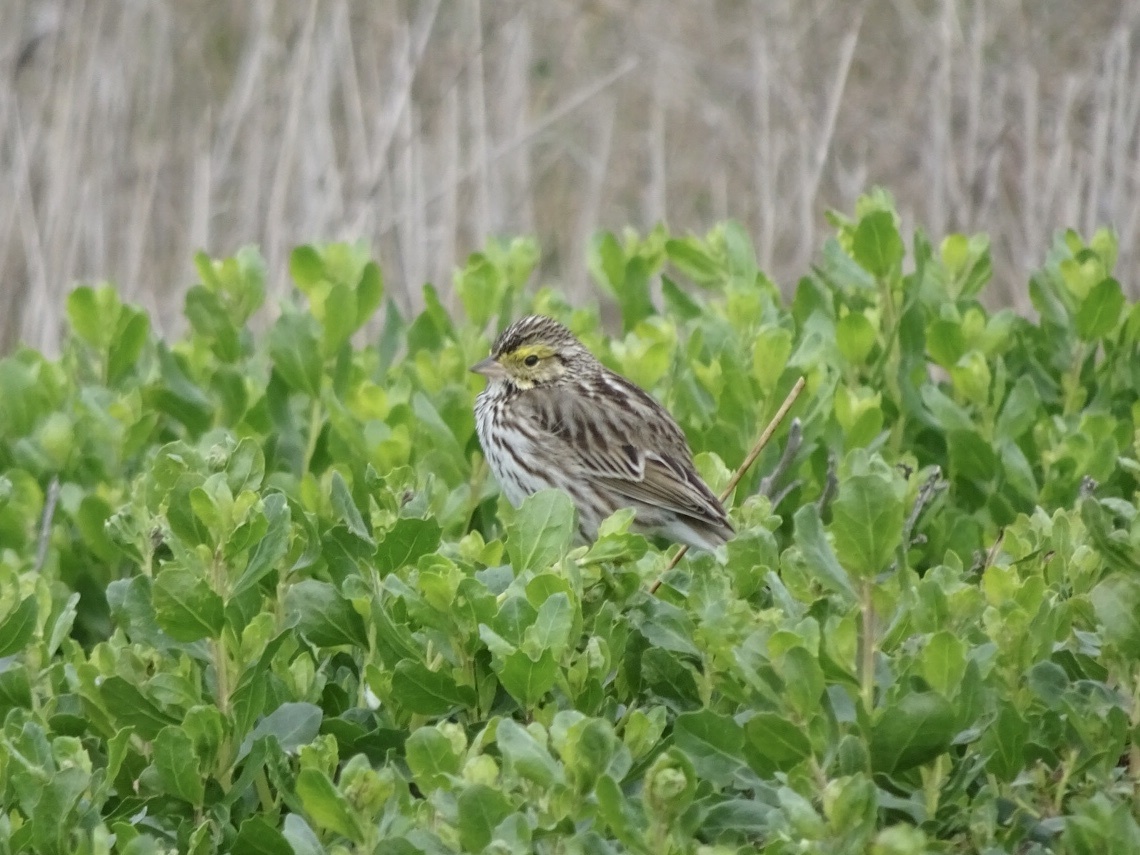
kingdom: Animalia
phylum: Chordata
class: Aves
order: Passeriformes
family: Passerellidae
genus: Passerculus
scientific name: Passerculus sandwichensis
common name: Savannah sparrow
